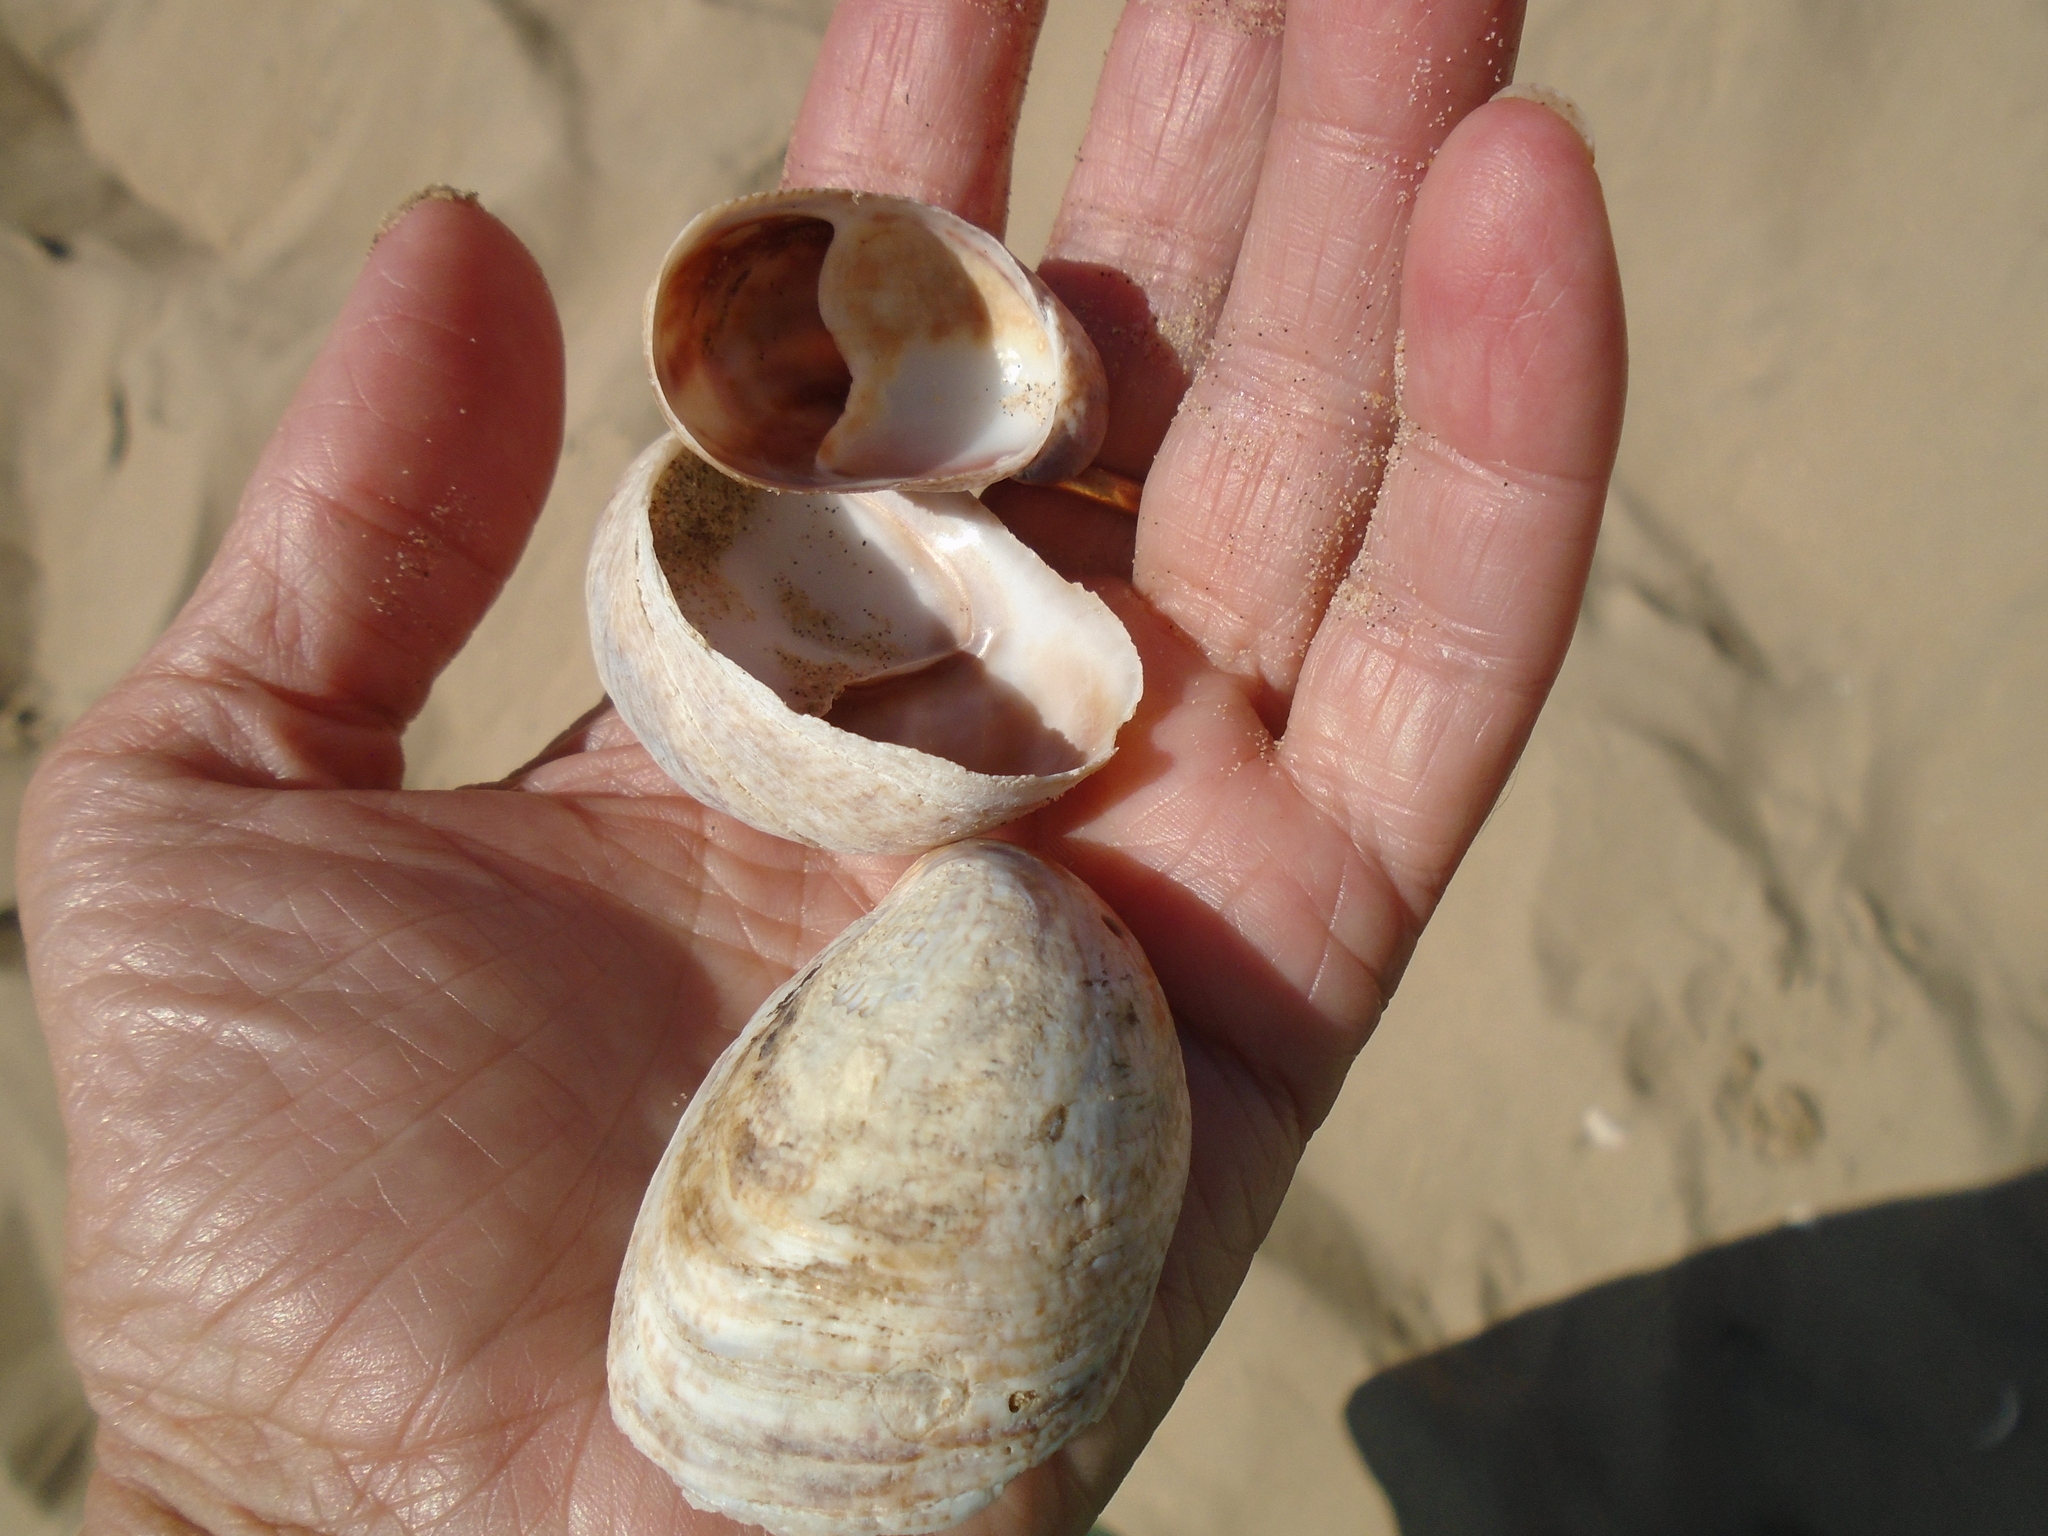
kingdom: Animalia
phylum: Mollusca
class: Gastropoda
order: Littorinimorpha
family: Calyptraeidae
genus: Crepidula
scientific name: Crepidula fornicata
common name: Slipper limpet
